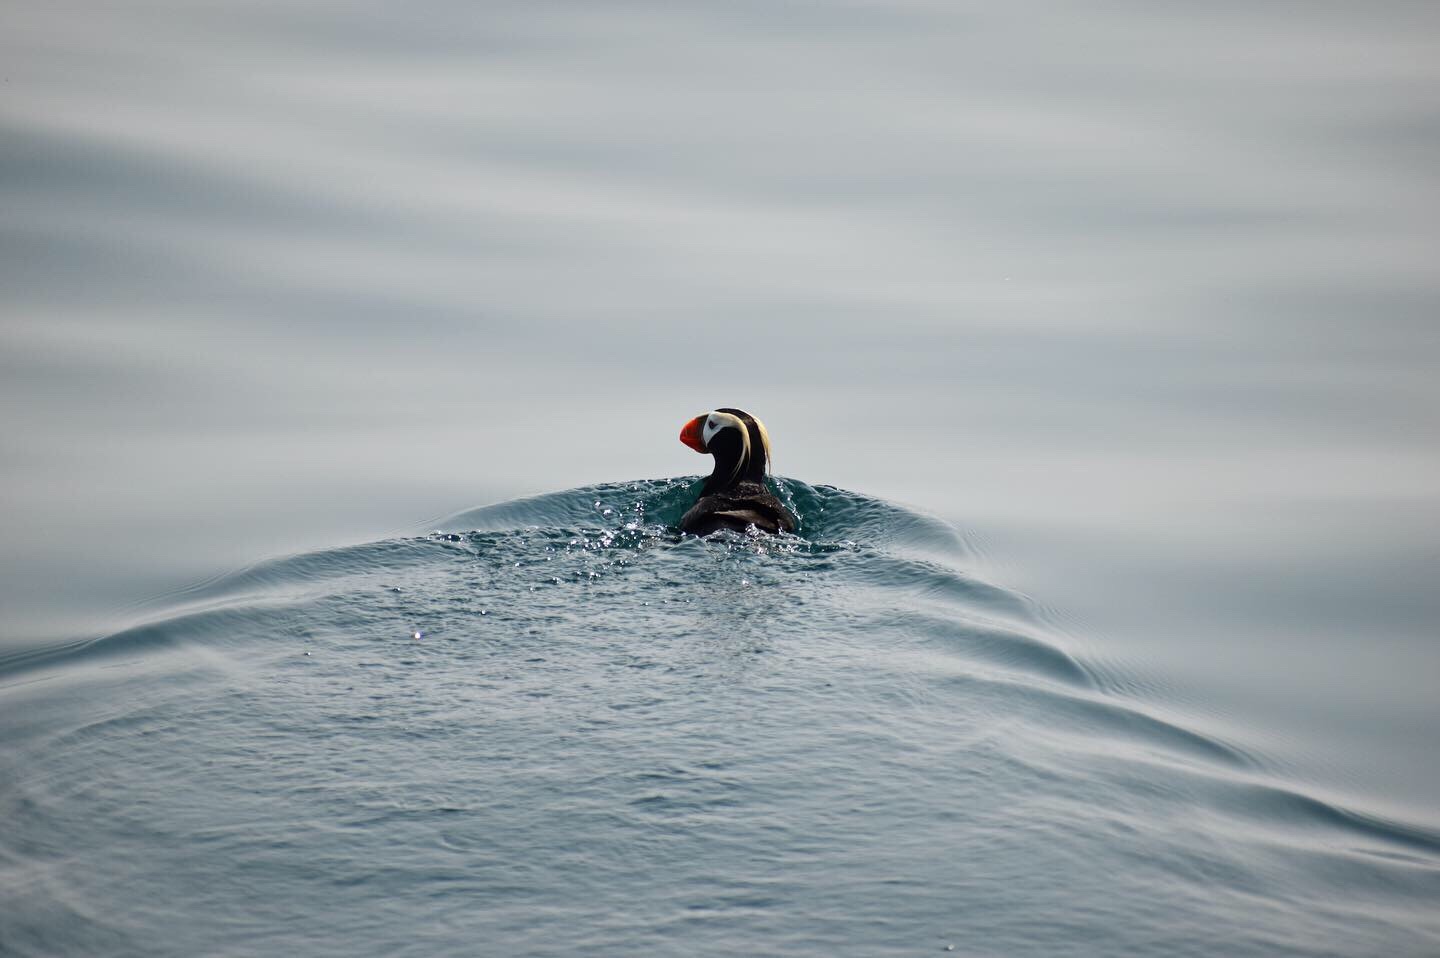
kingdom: Animalia
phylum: Chordata
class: Aves
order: Charadriiformes
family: Alcidae
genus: Fratercula
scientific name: Fratercula cirrhata
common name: Tufted puffin
